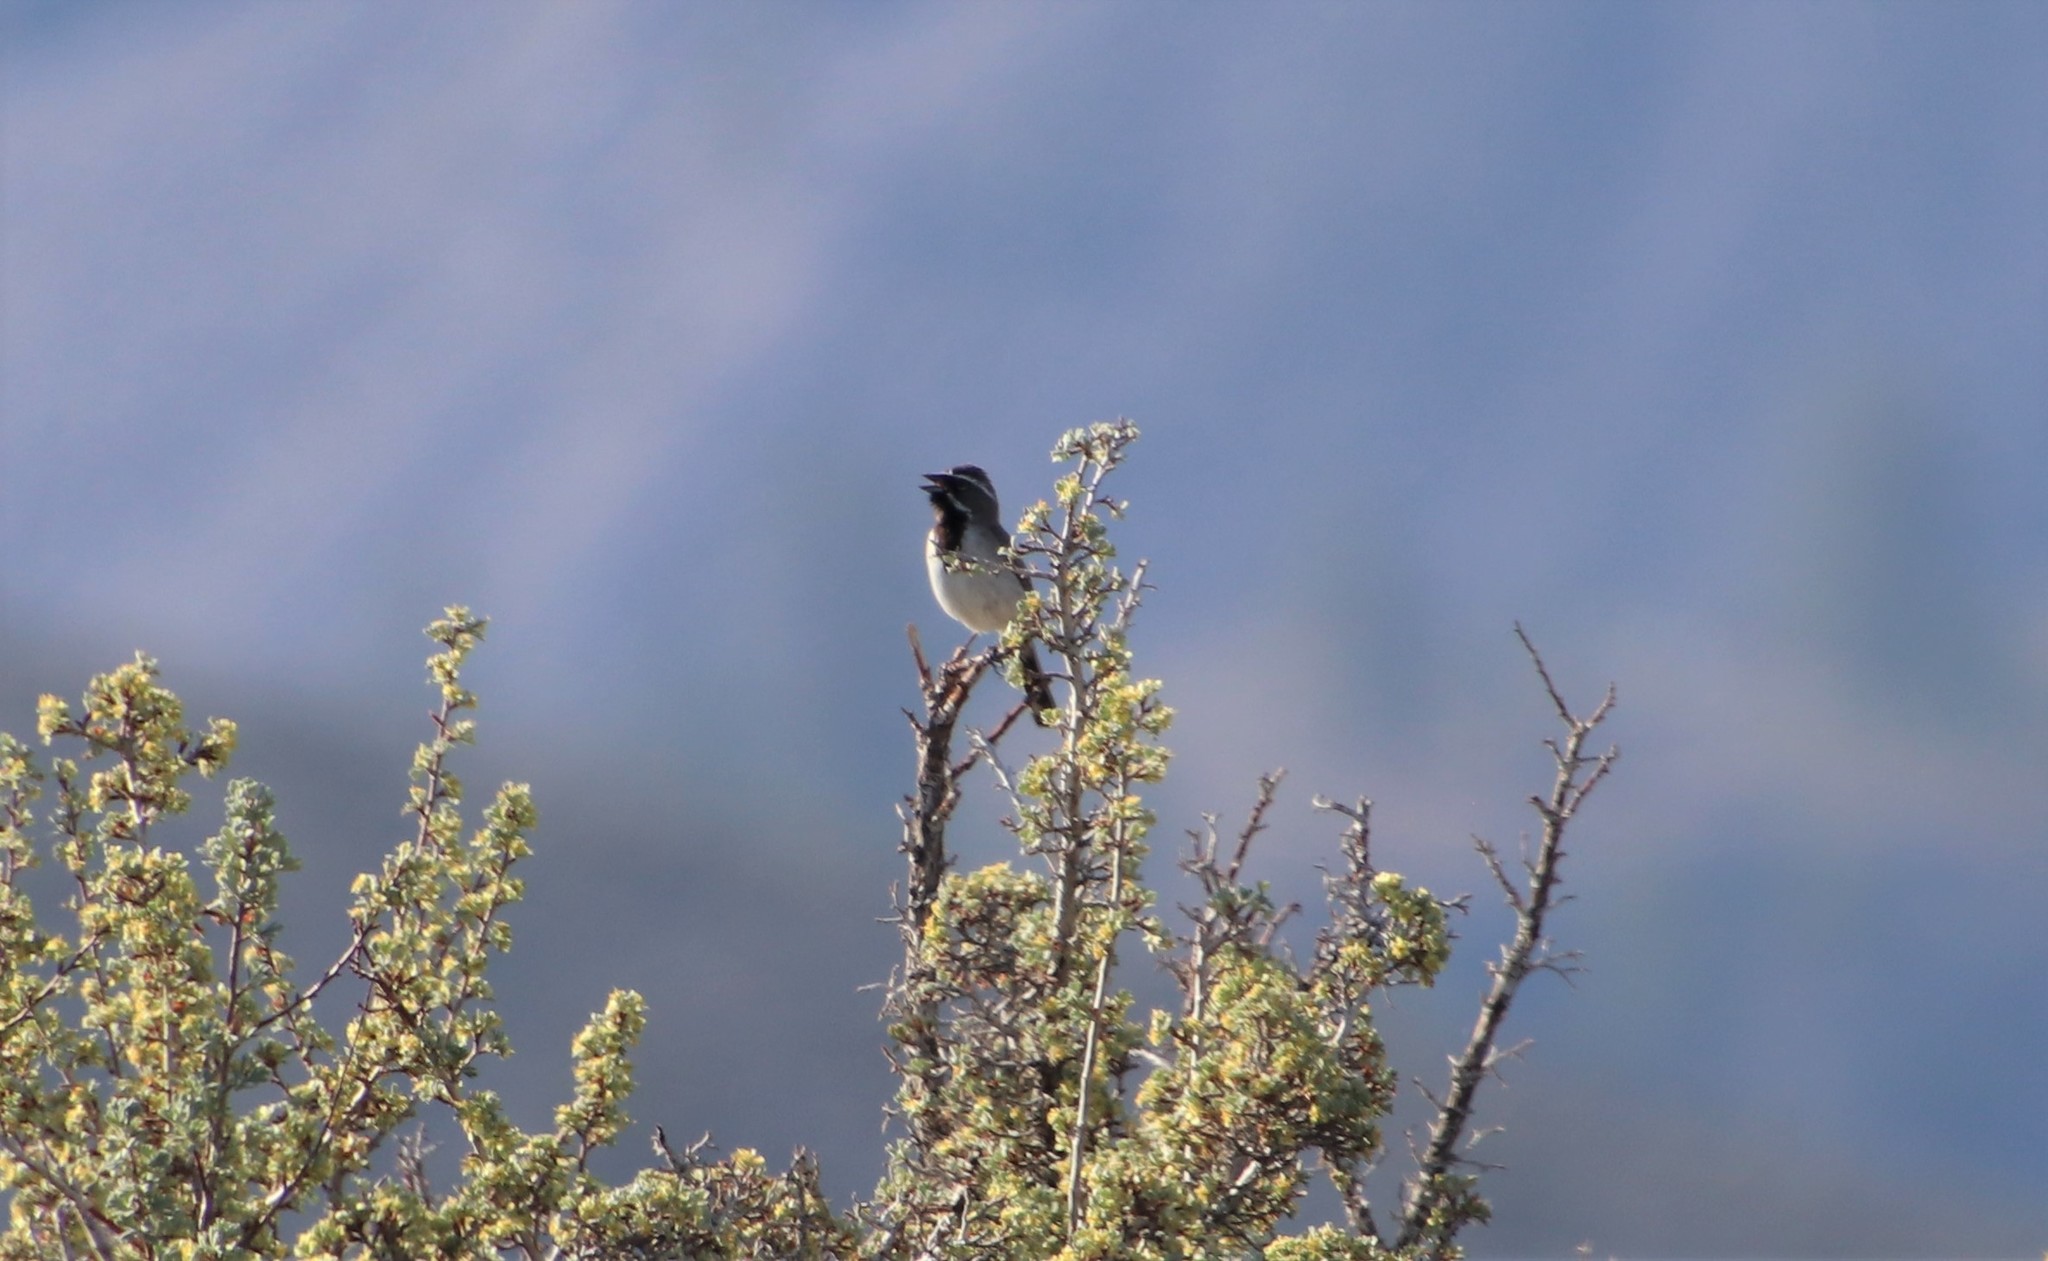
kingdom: Animalia
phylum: Chordata
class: Aves
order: Passeriformes
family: Passerellidae
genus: Amphispiza
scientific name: Amphispiza bilineata
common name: Black-throated sparrow
